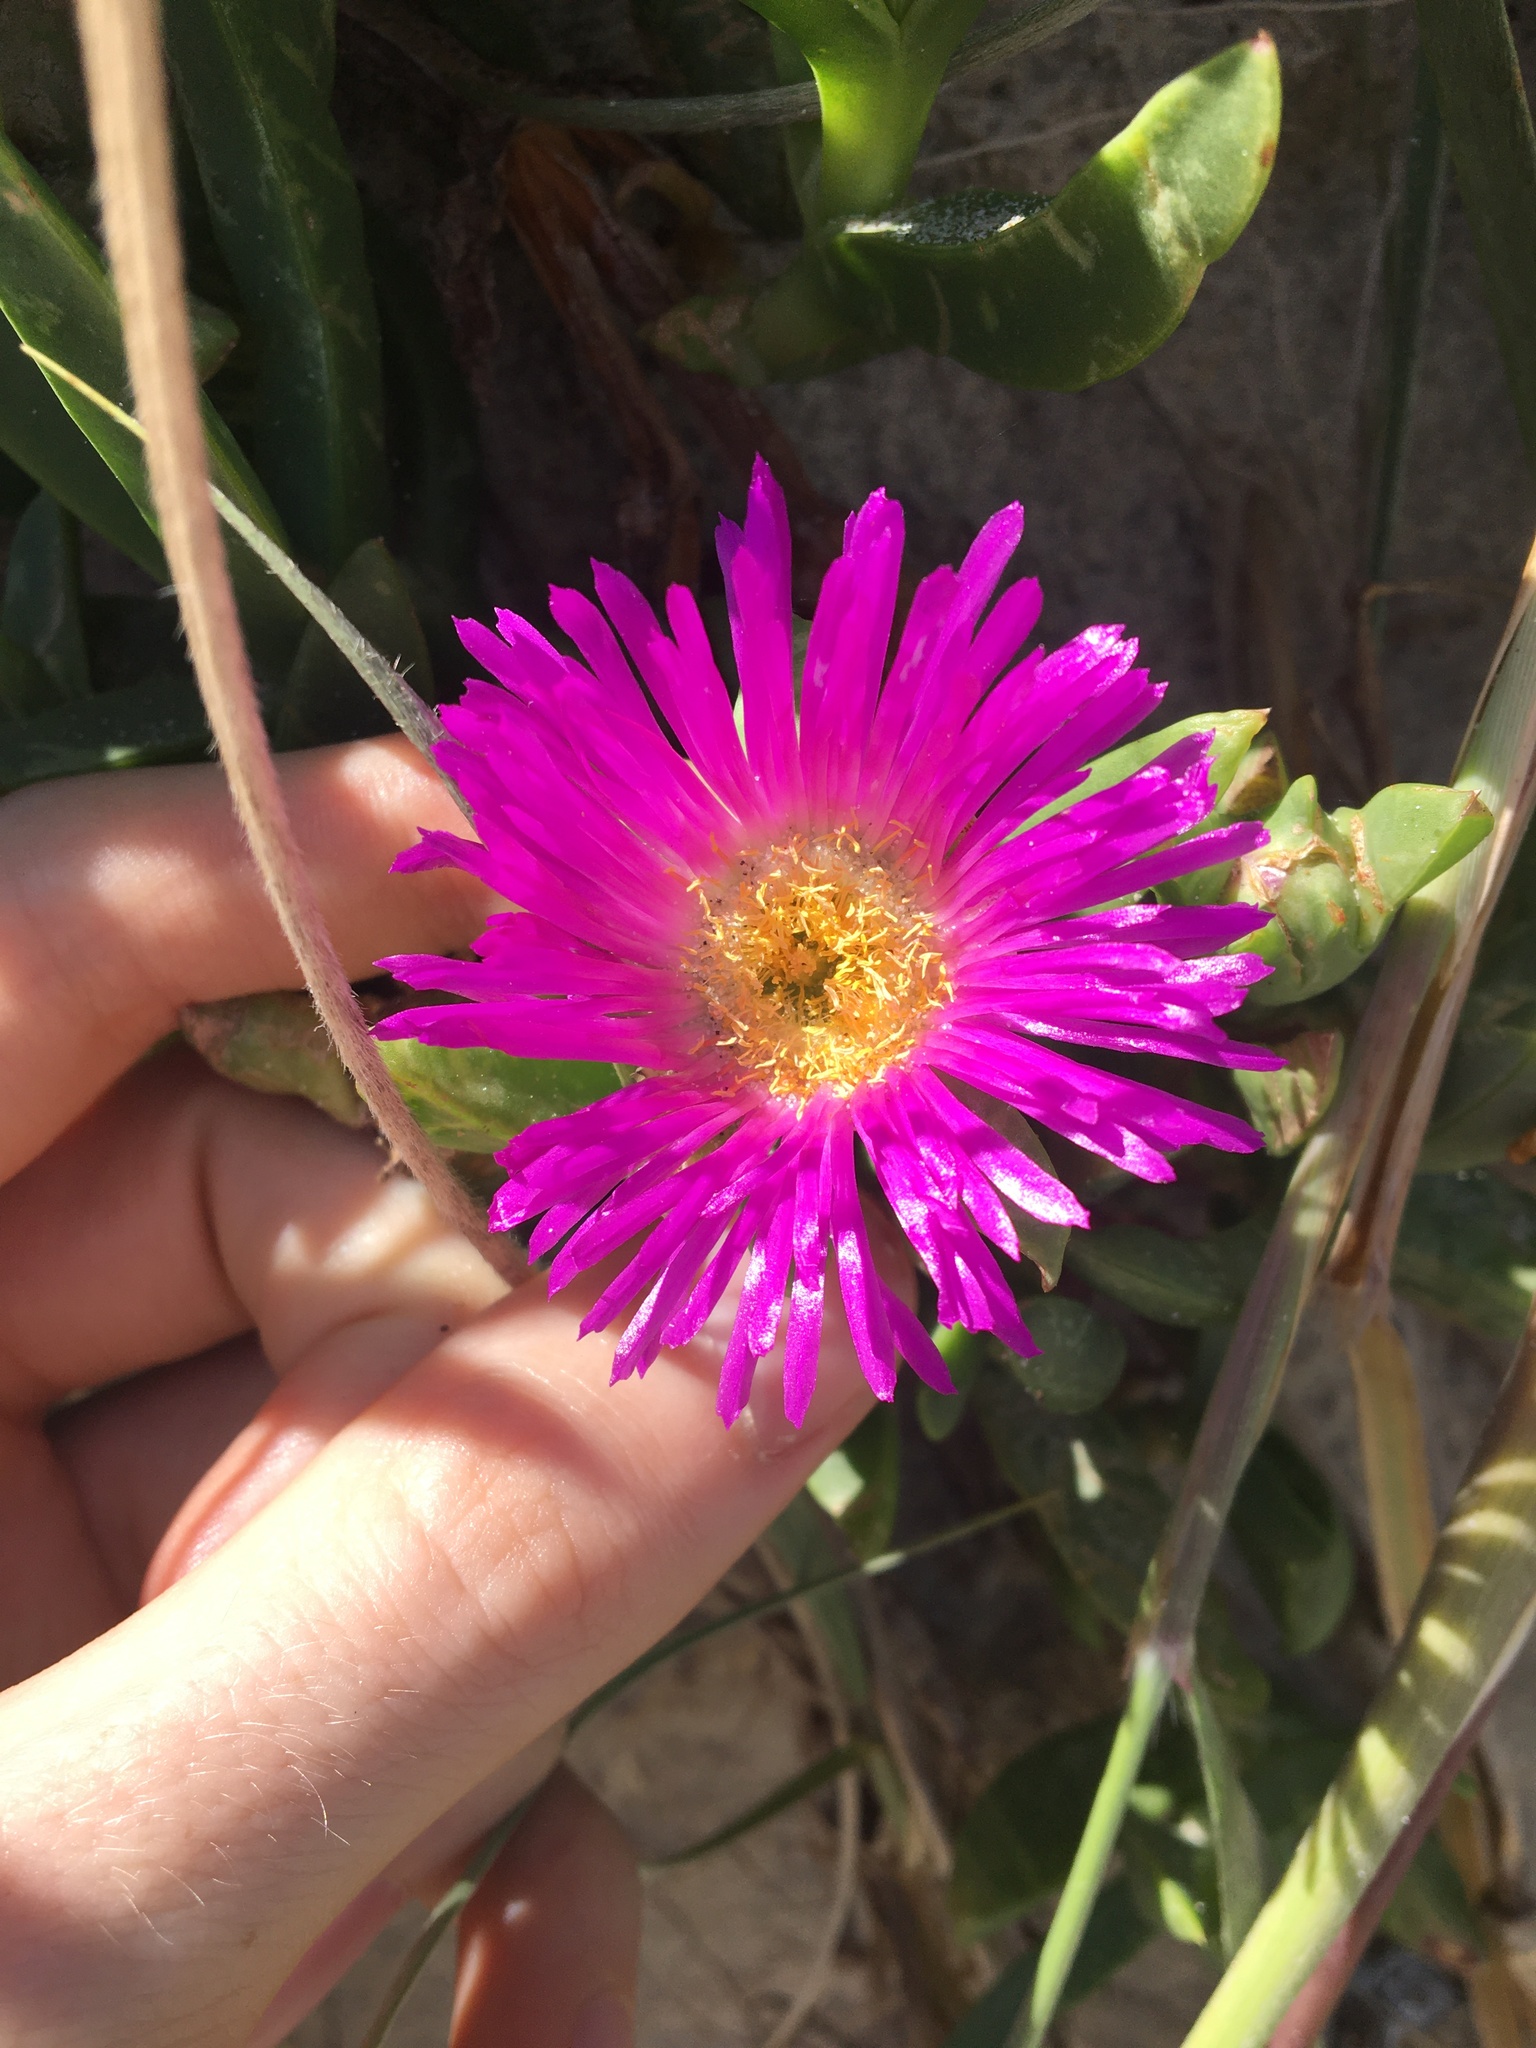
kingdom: Plantae
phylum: Tracheophyta
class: Magnoliopsida
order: Caryophyllales
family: Aizoaceae
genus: Carpobrotus
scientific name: Carpobrotus glaucescens
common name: Angular sea-fig
